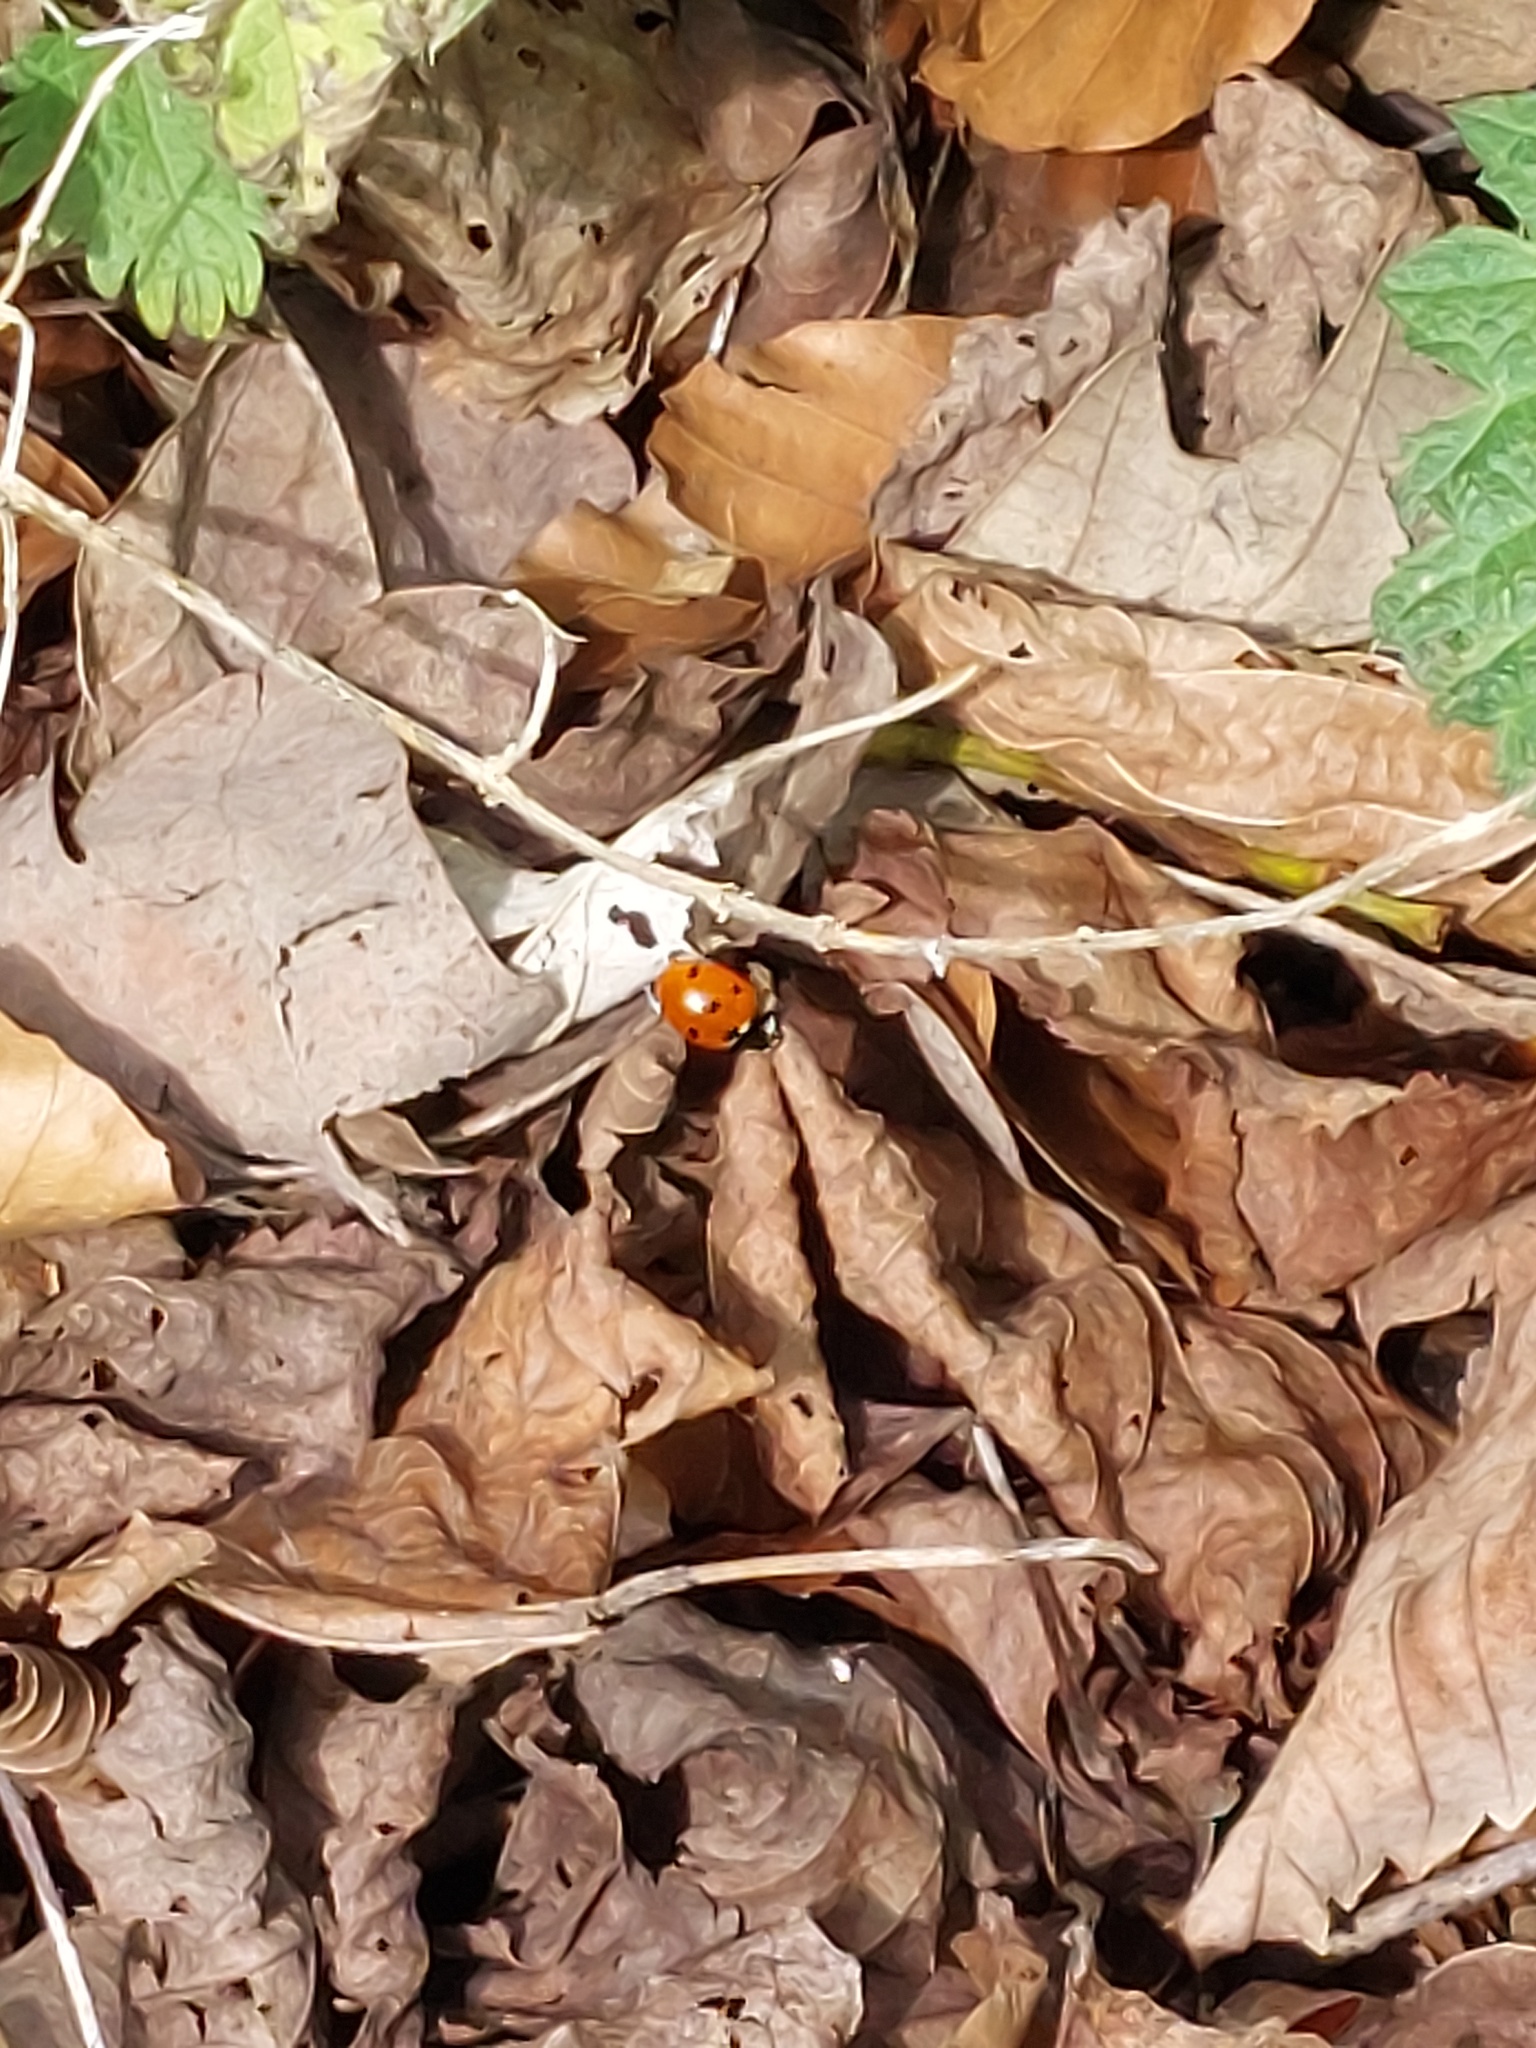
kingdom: Animalia
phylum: Arthropoda
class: Insecta
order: Coleoptera
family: Coccinellidae
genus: Coccinella
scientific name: Coccinella septempunctata
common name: Sevenspotted lady beetle
